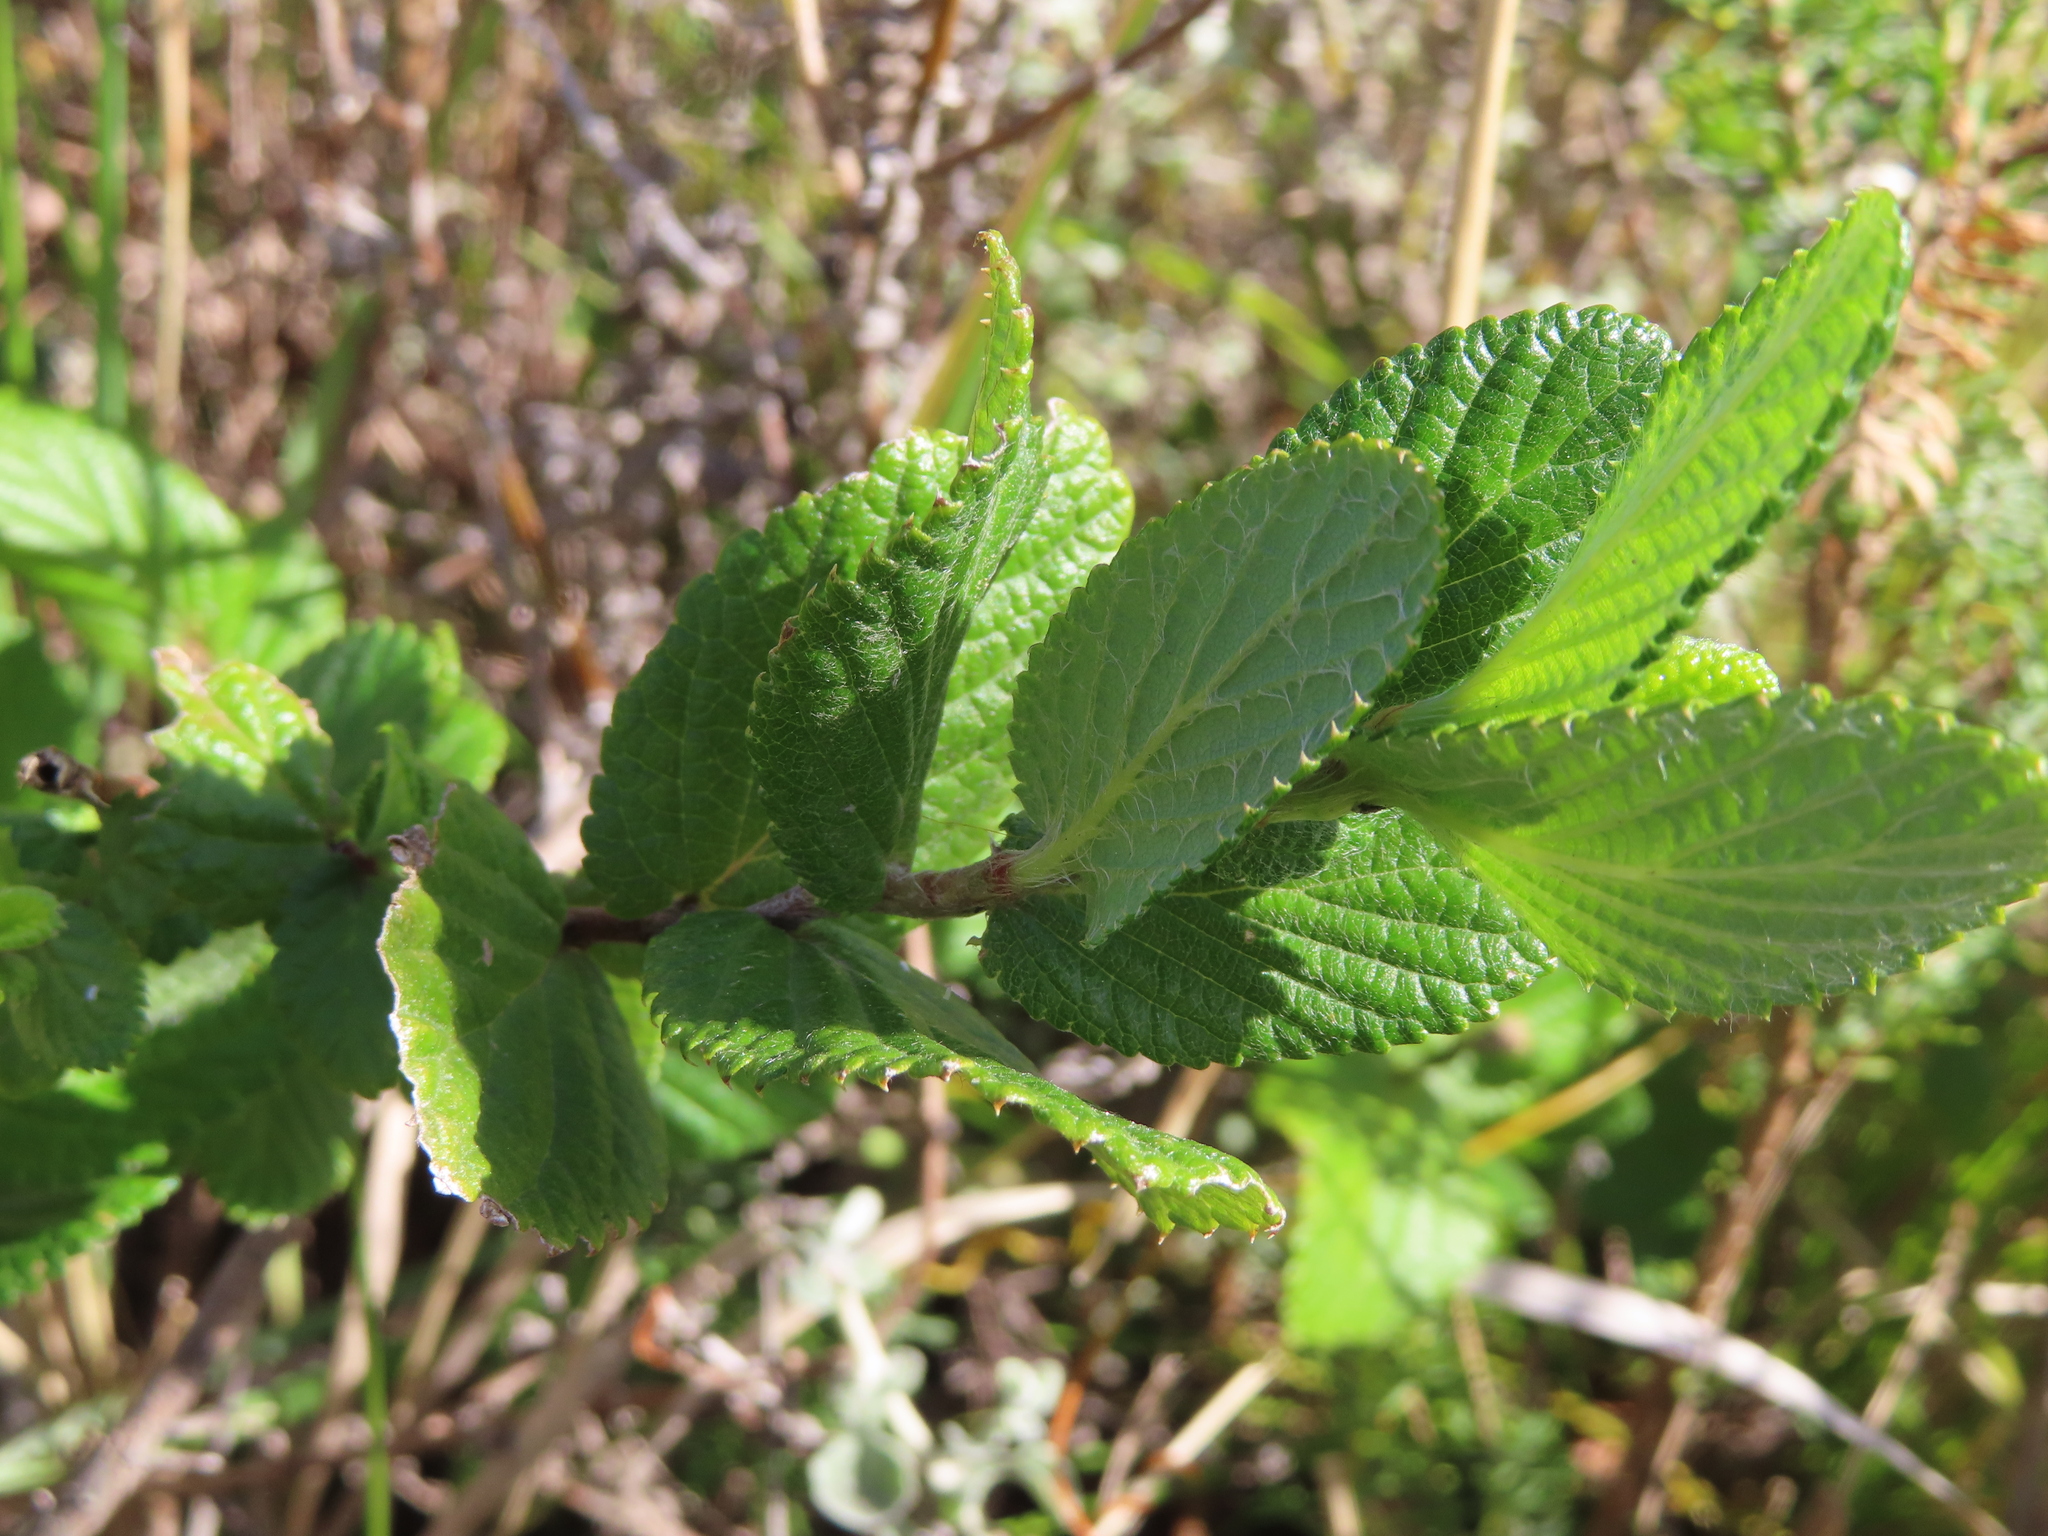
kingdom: Plantae
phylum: Tracheophyta
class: Magnoliopsida
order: Rosales
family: Rosaceae
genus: Cliffortia
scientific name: Cliffortia odorata
